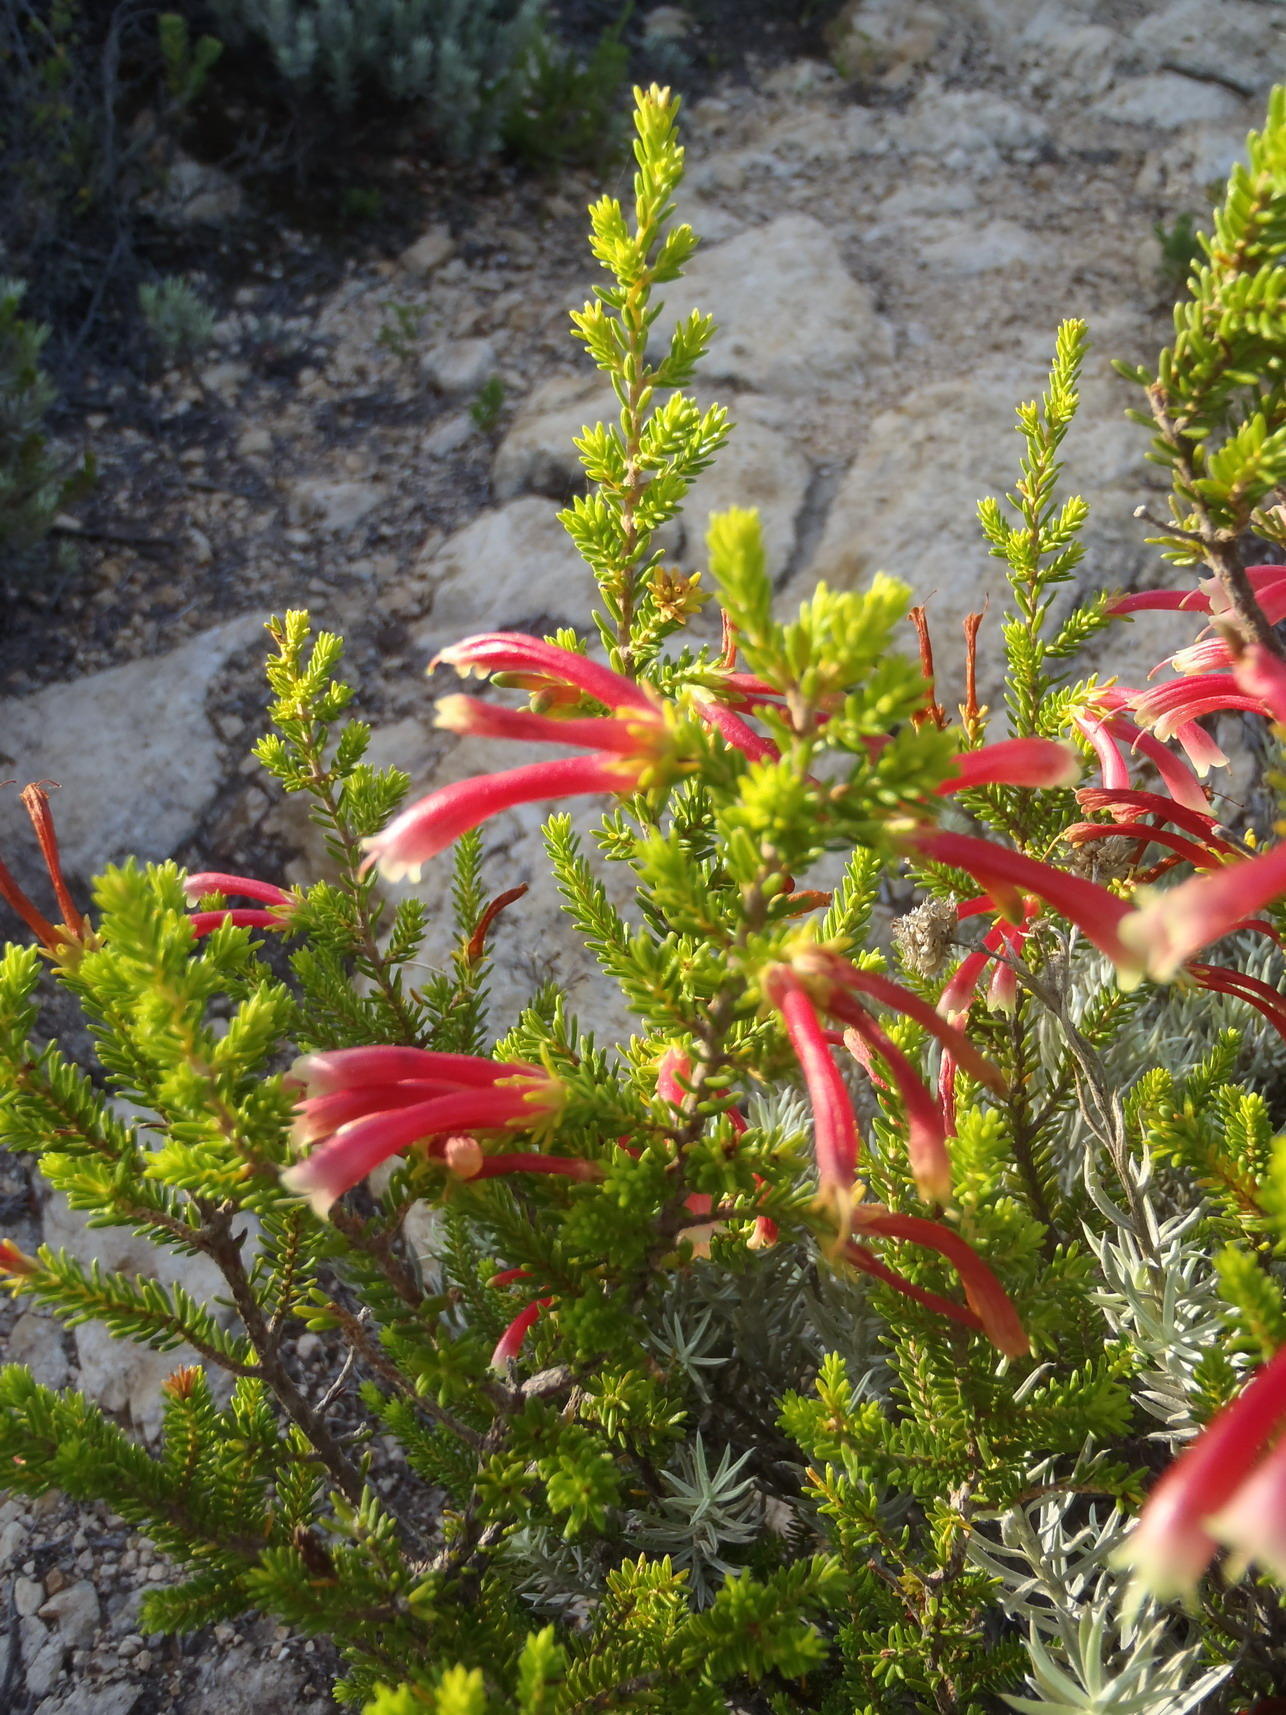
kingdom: Plantae
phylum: Tracheophyta
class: Magnoliopsida
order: Ericales
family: Ericaceae
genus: Erica
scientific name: Erica versicolor
